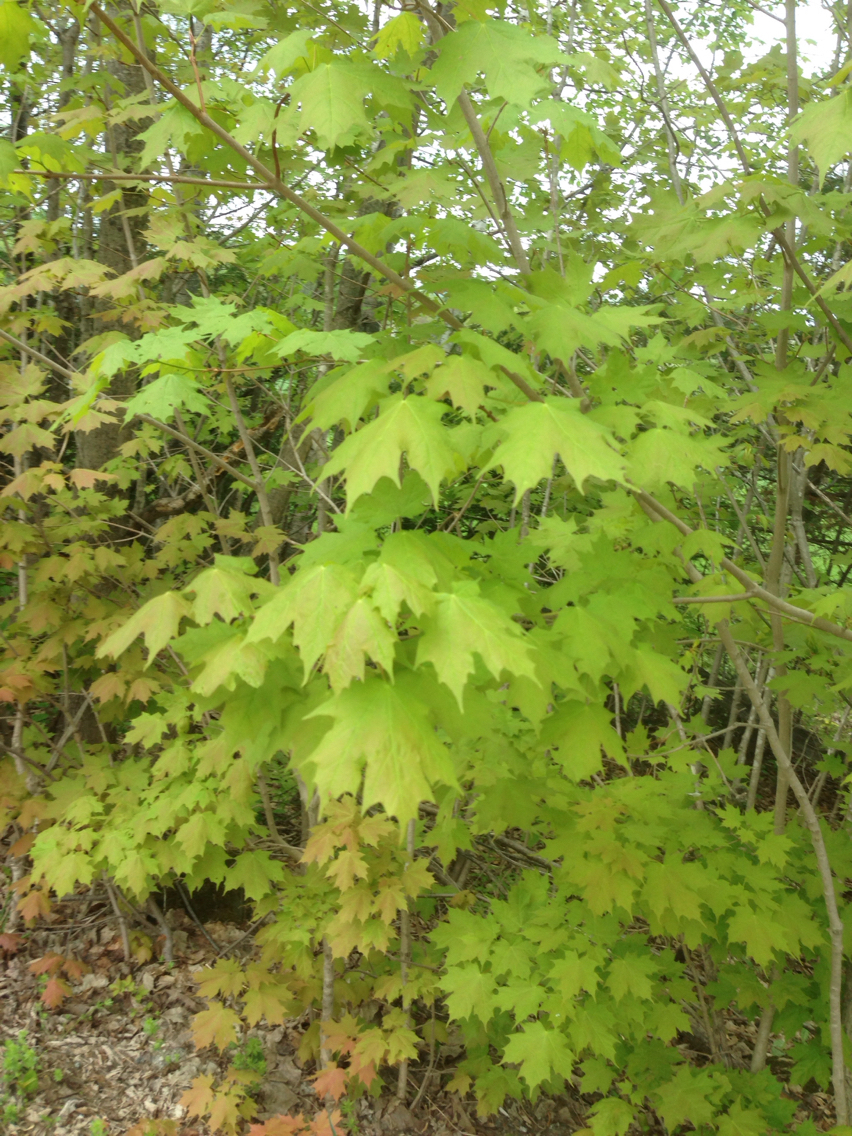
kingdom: Plantae
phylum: Tracheophyta
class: Magnoliopsida
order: Sapindales
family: Sapindaceae
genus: Acer
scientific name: Acer saccharum
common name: Sugar maple
